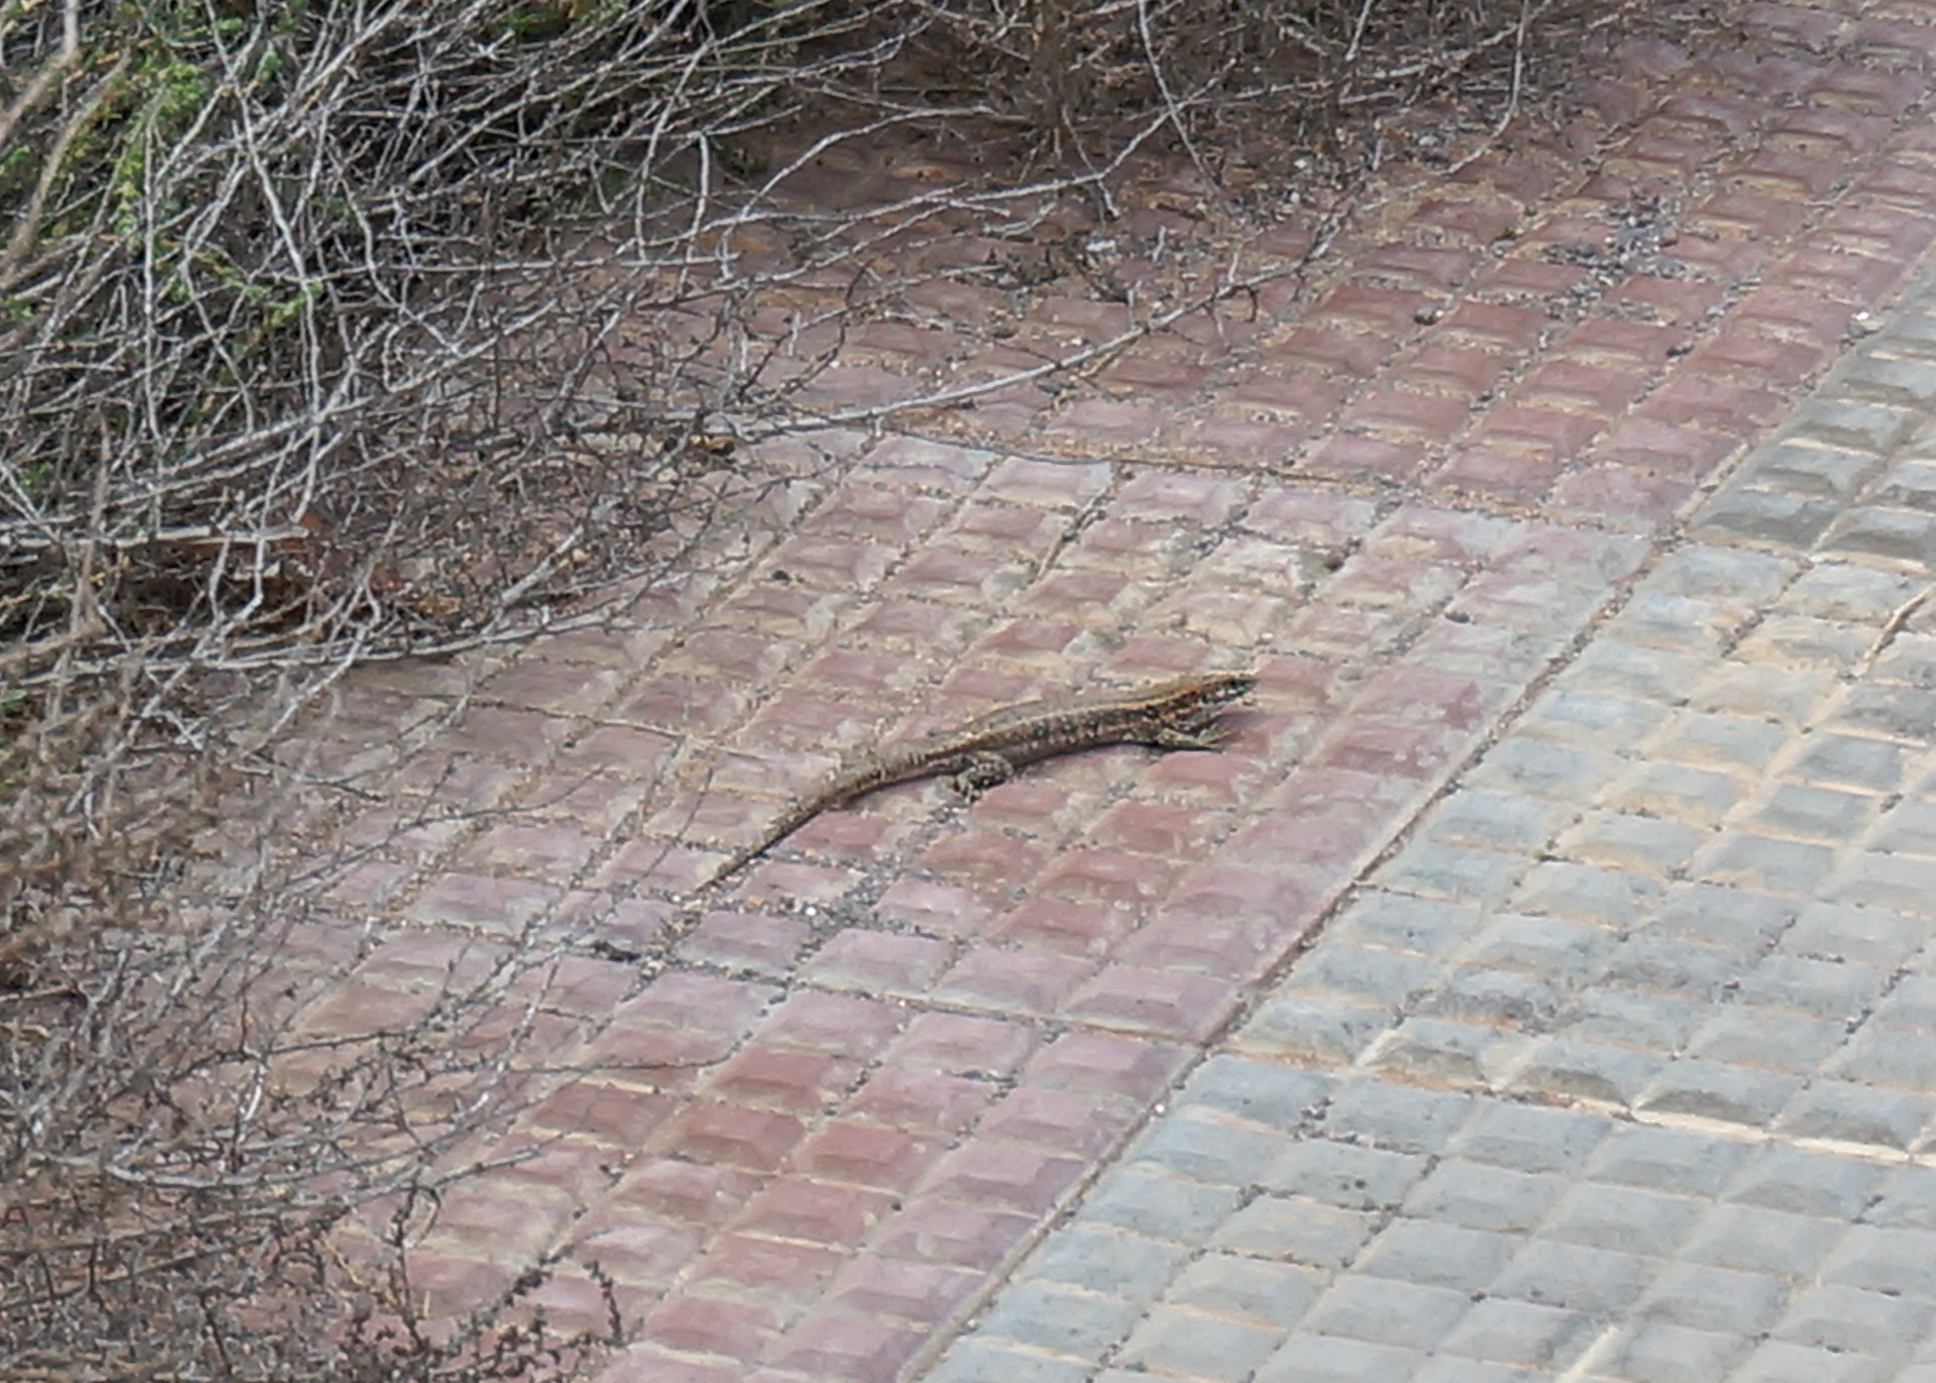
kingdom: Animalia
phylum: Chordata
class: Squamata
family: Lacertidae
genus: Gallotia
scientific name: Gallotia atlantica
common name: Atlantic lizard
